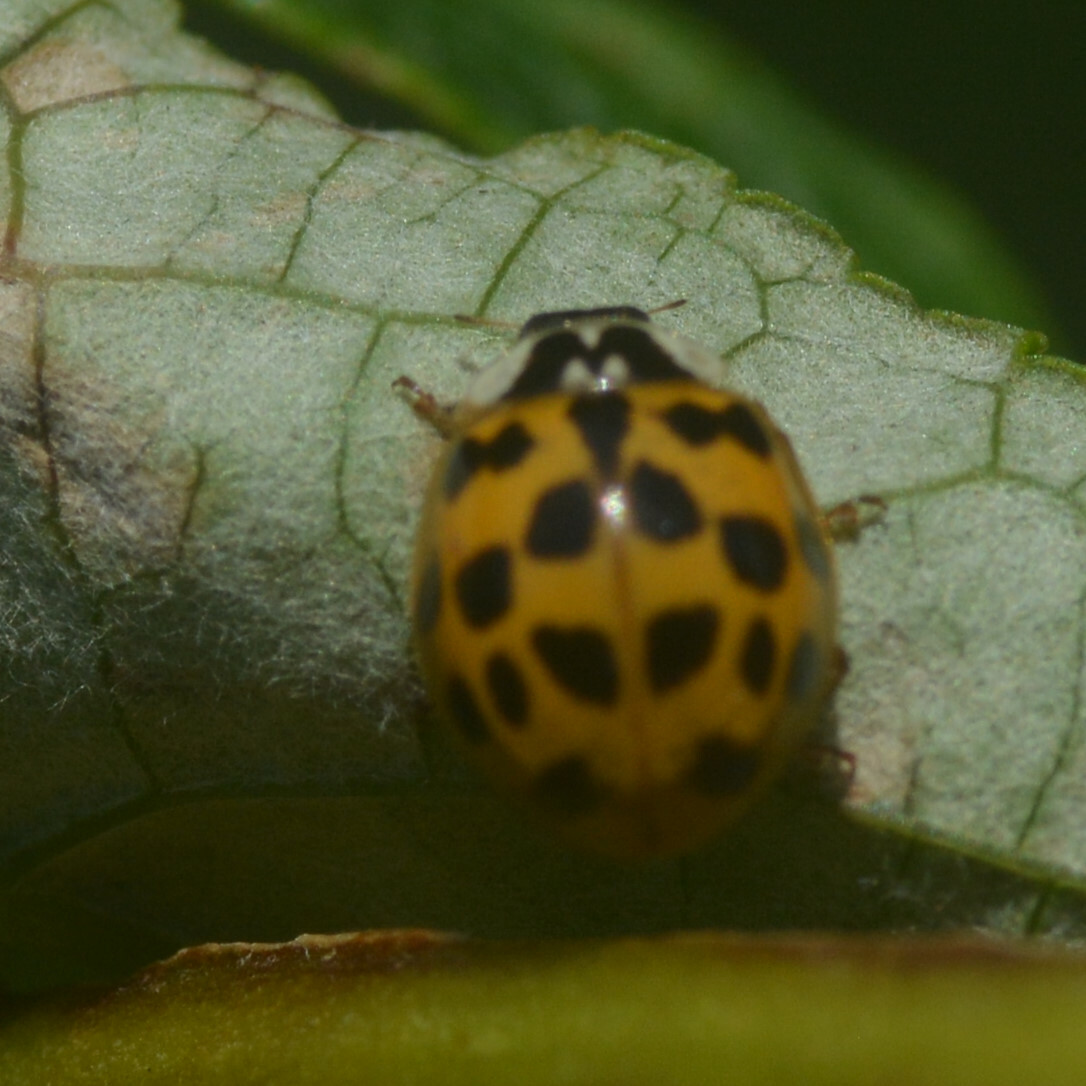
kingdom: Animalia
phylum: Arthropoda
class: Insecta
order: Coleoptera
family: Coccinellidae
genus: Harmonia
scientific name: Harmonia axyridis
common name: Harlequin ladybird
